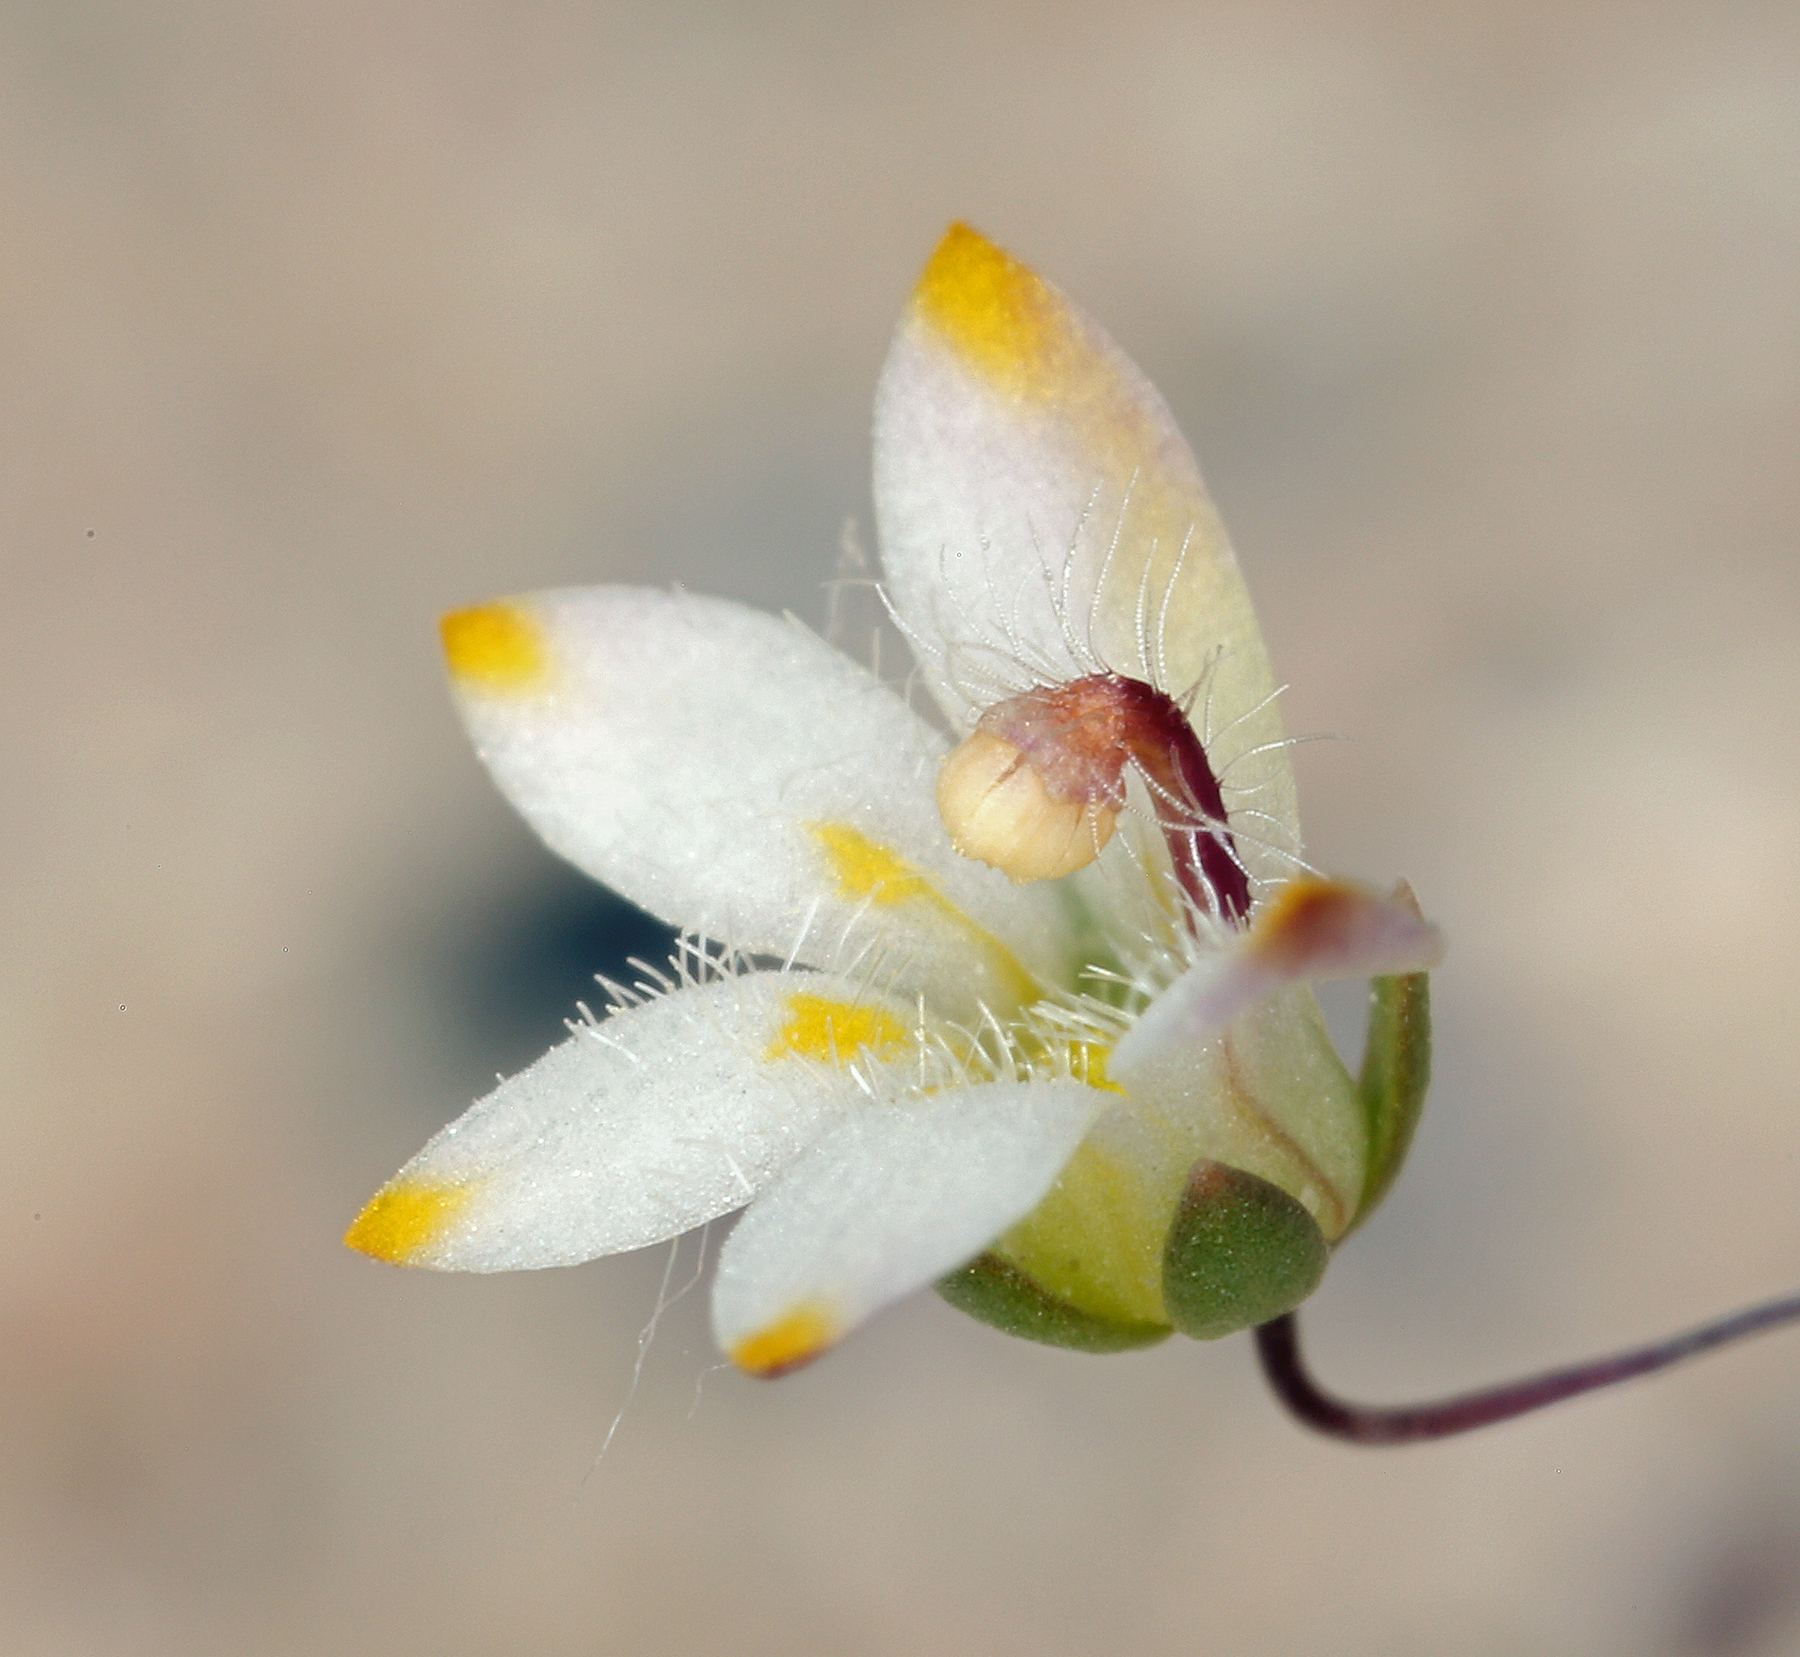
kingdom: Plantae
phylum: Tracheophyta
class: Magnoliopsida
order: Asterales
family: Campanulaceae
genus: Nemacladus
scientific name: Nemacladus matsonii
